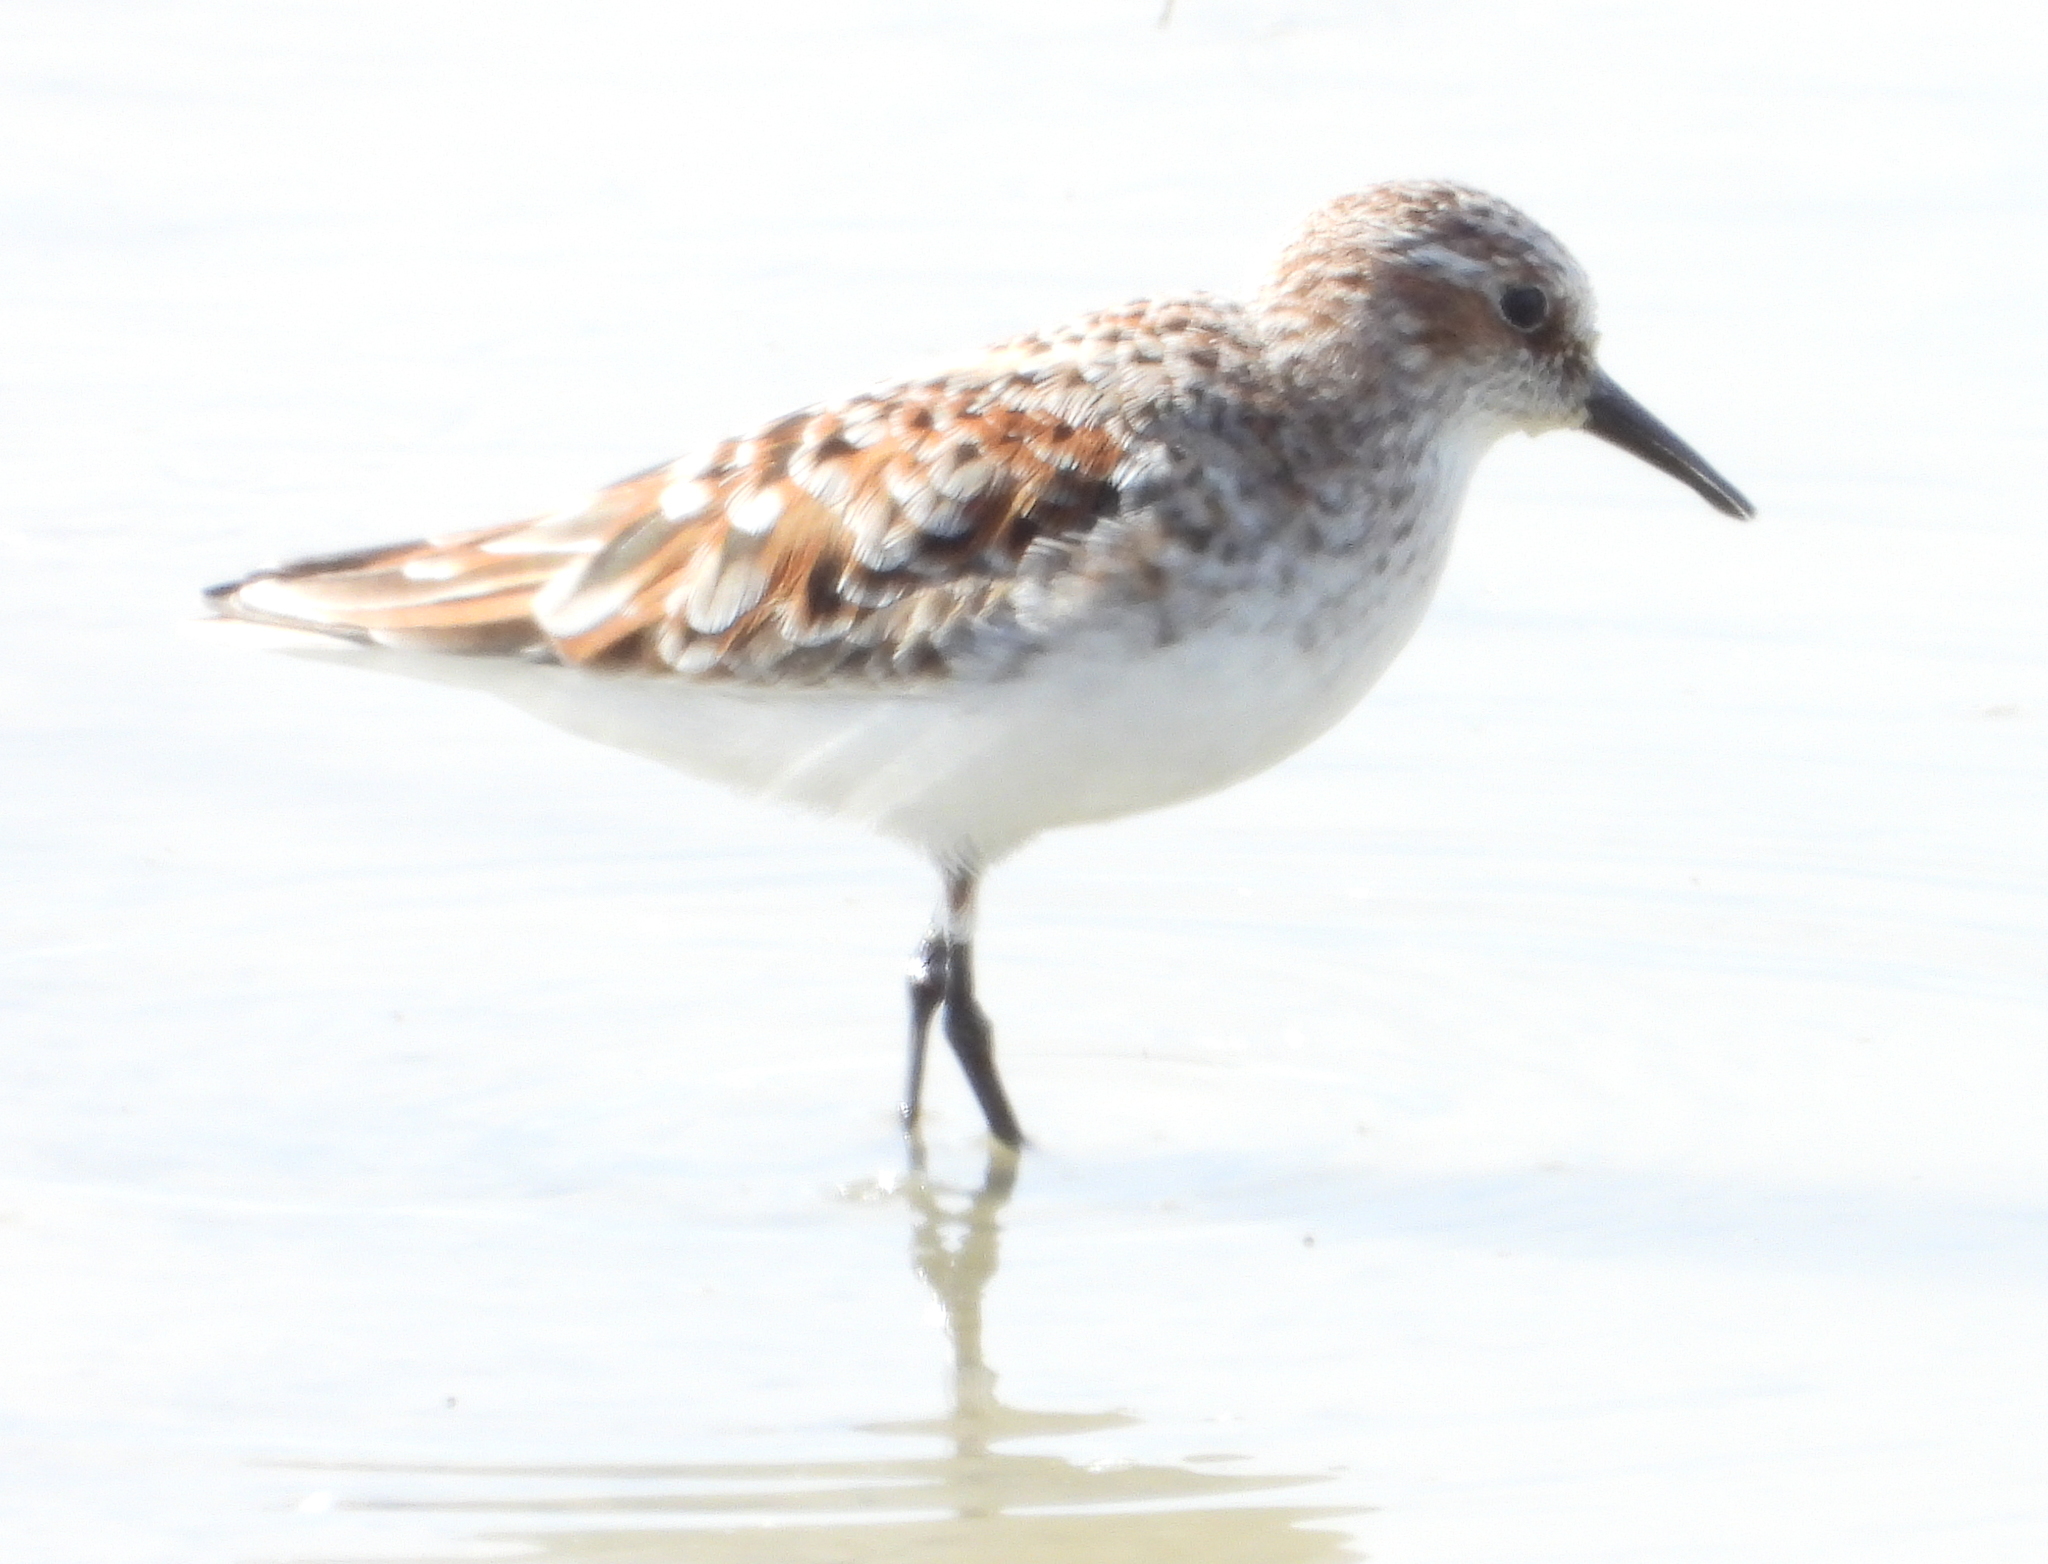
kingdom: Animalia
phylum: Chordata
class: Aves
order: Charadriiformes
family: Scolopacidae
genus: Calidris
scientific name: Calidris minuta
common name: Little stint
